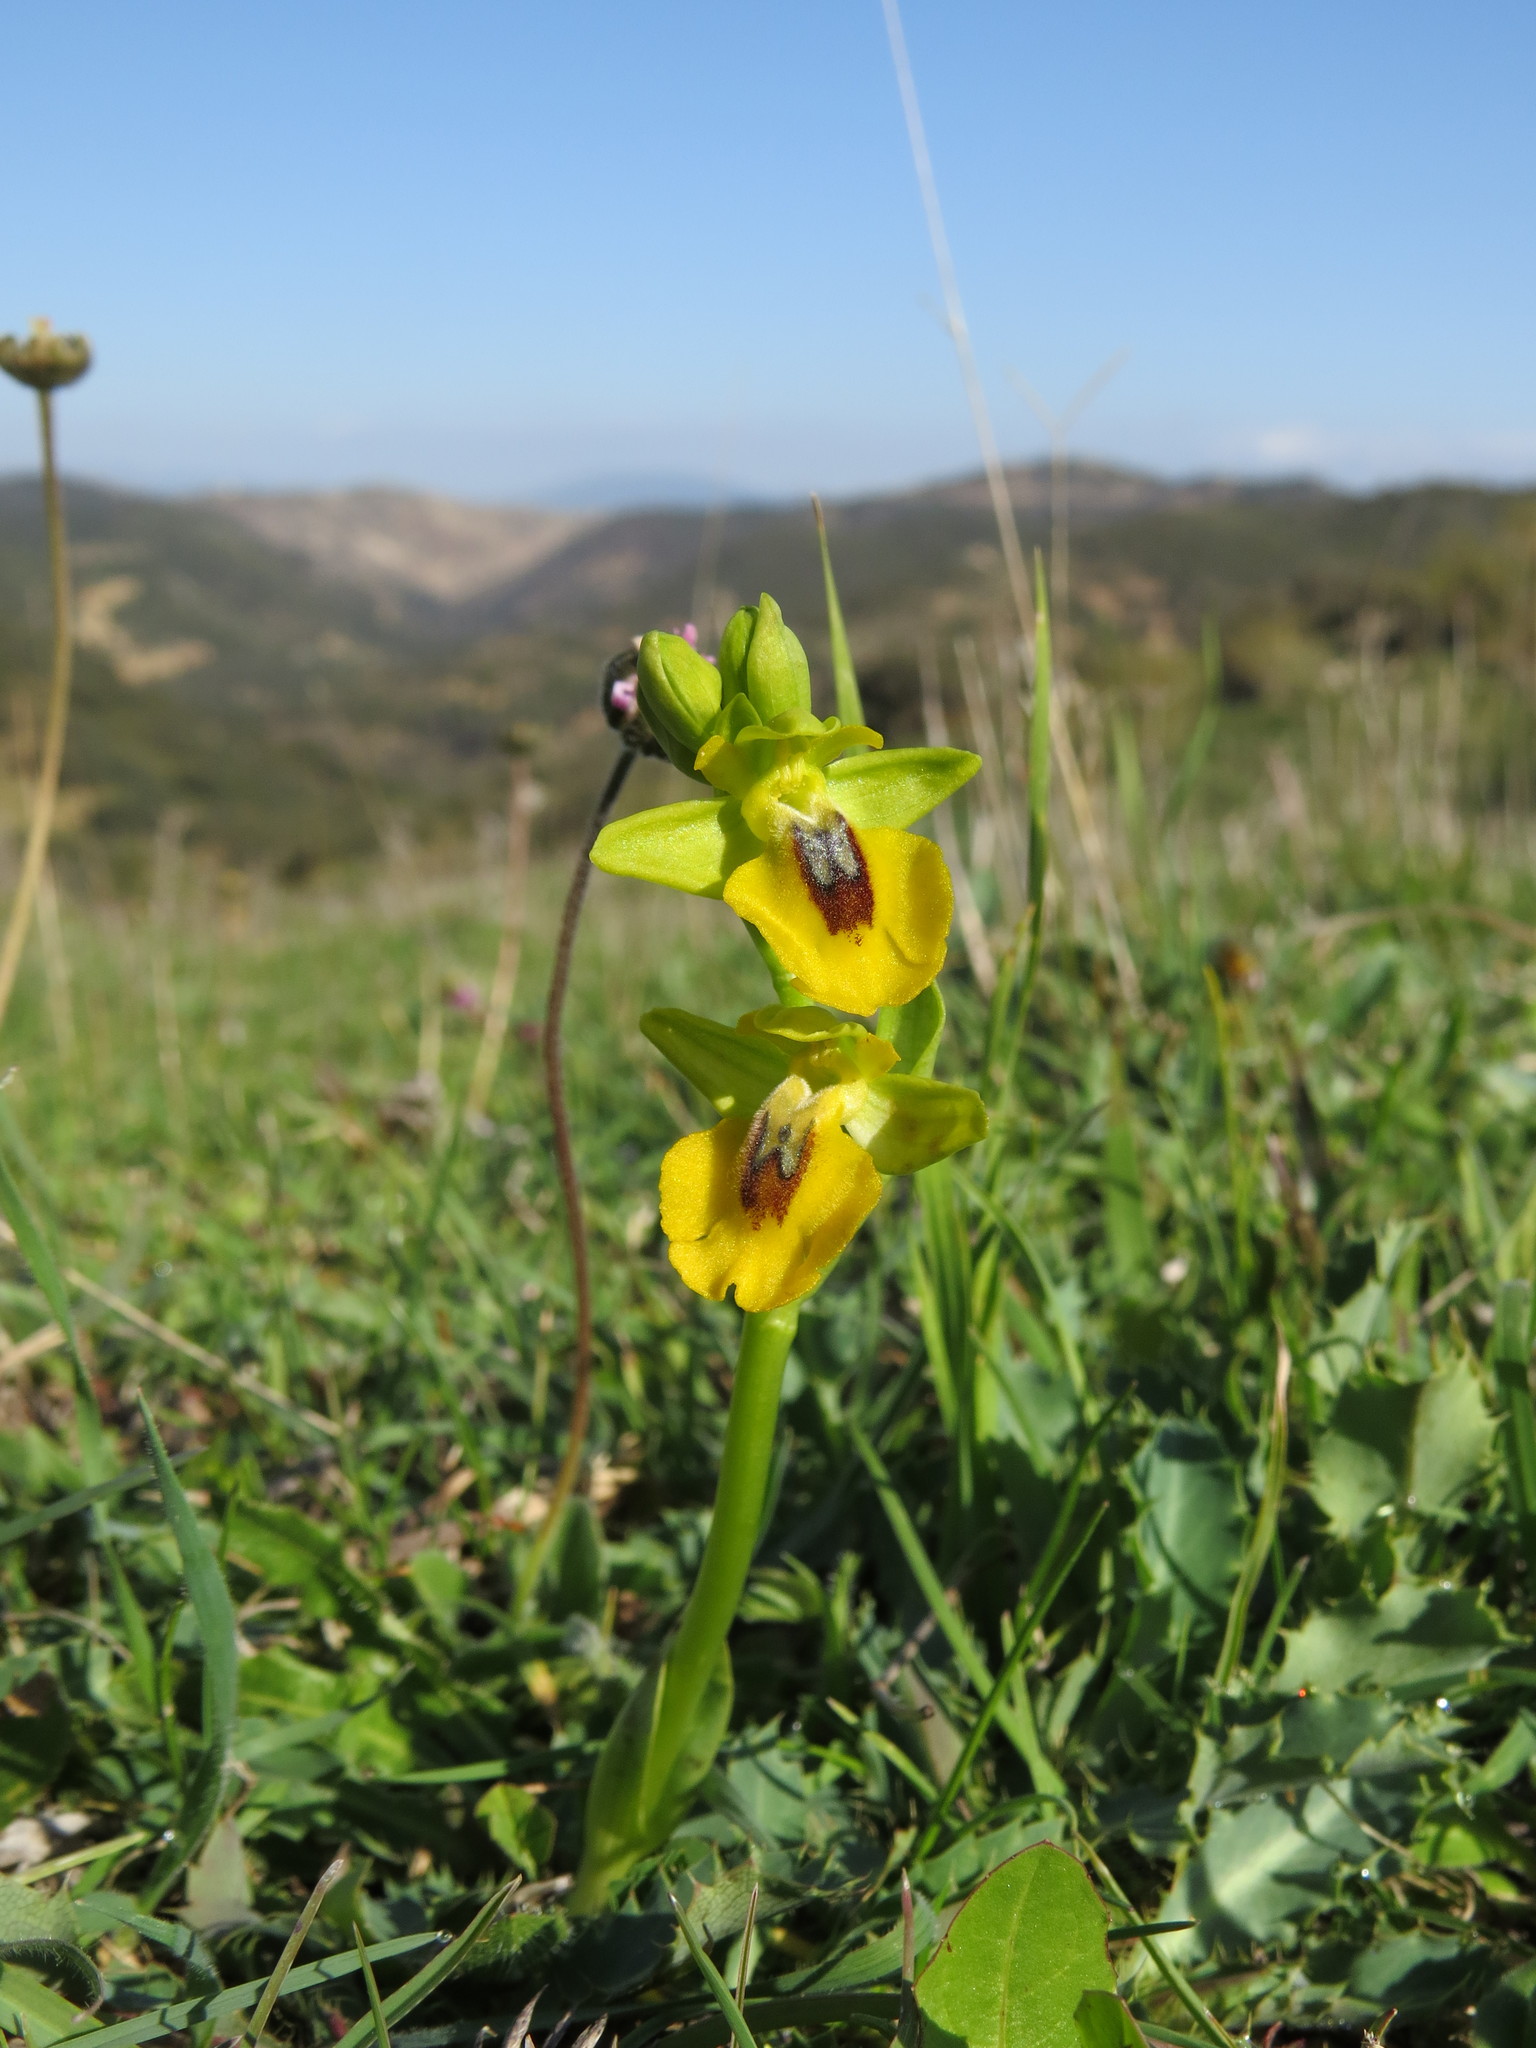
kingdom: Plantae
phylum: Tracheophyta
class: Liliopsida
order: Asparagales
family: Orchidaceae
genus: Ophrys
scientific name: Ophrys lutea
